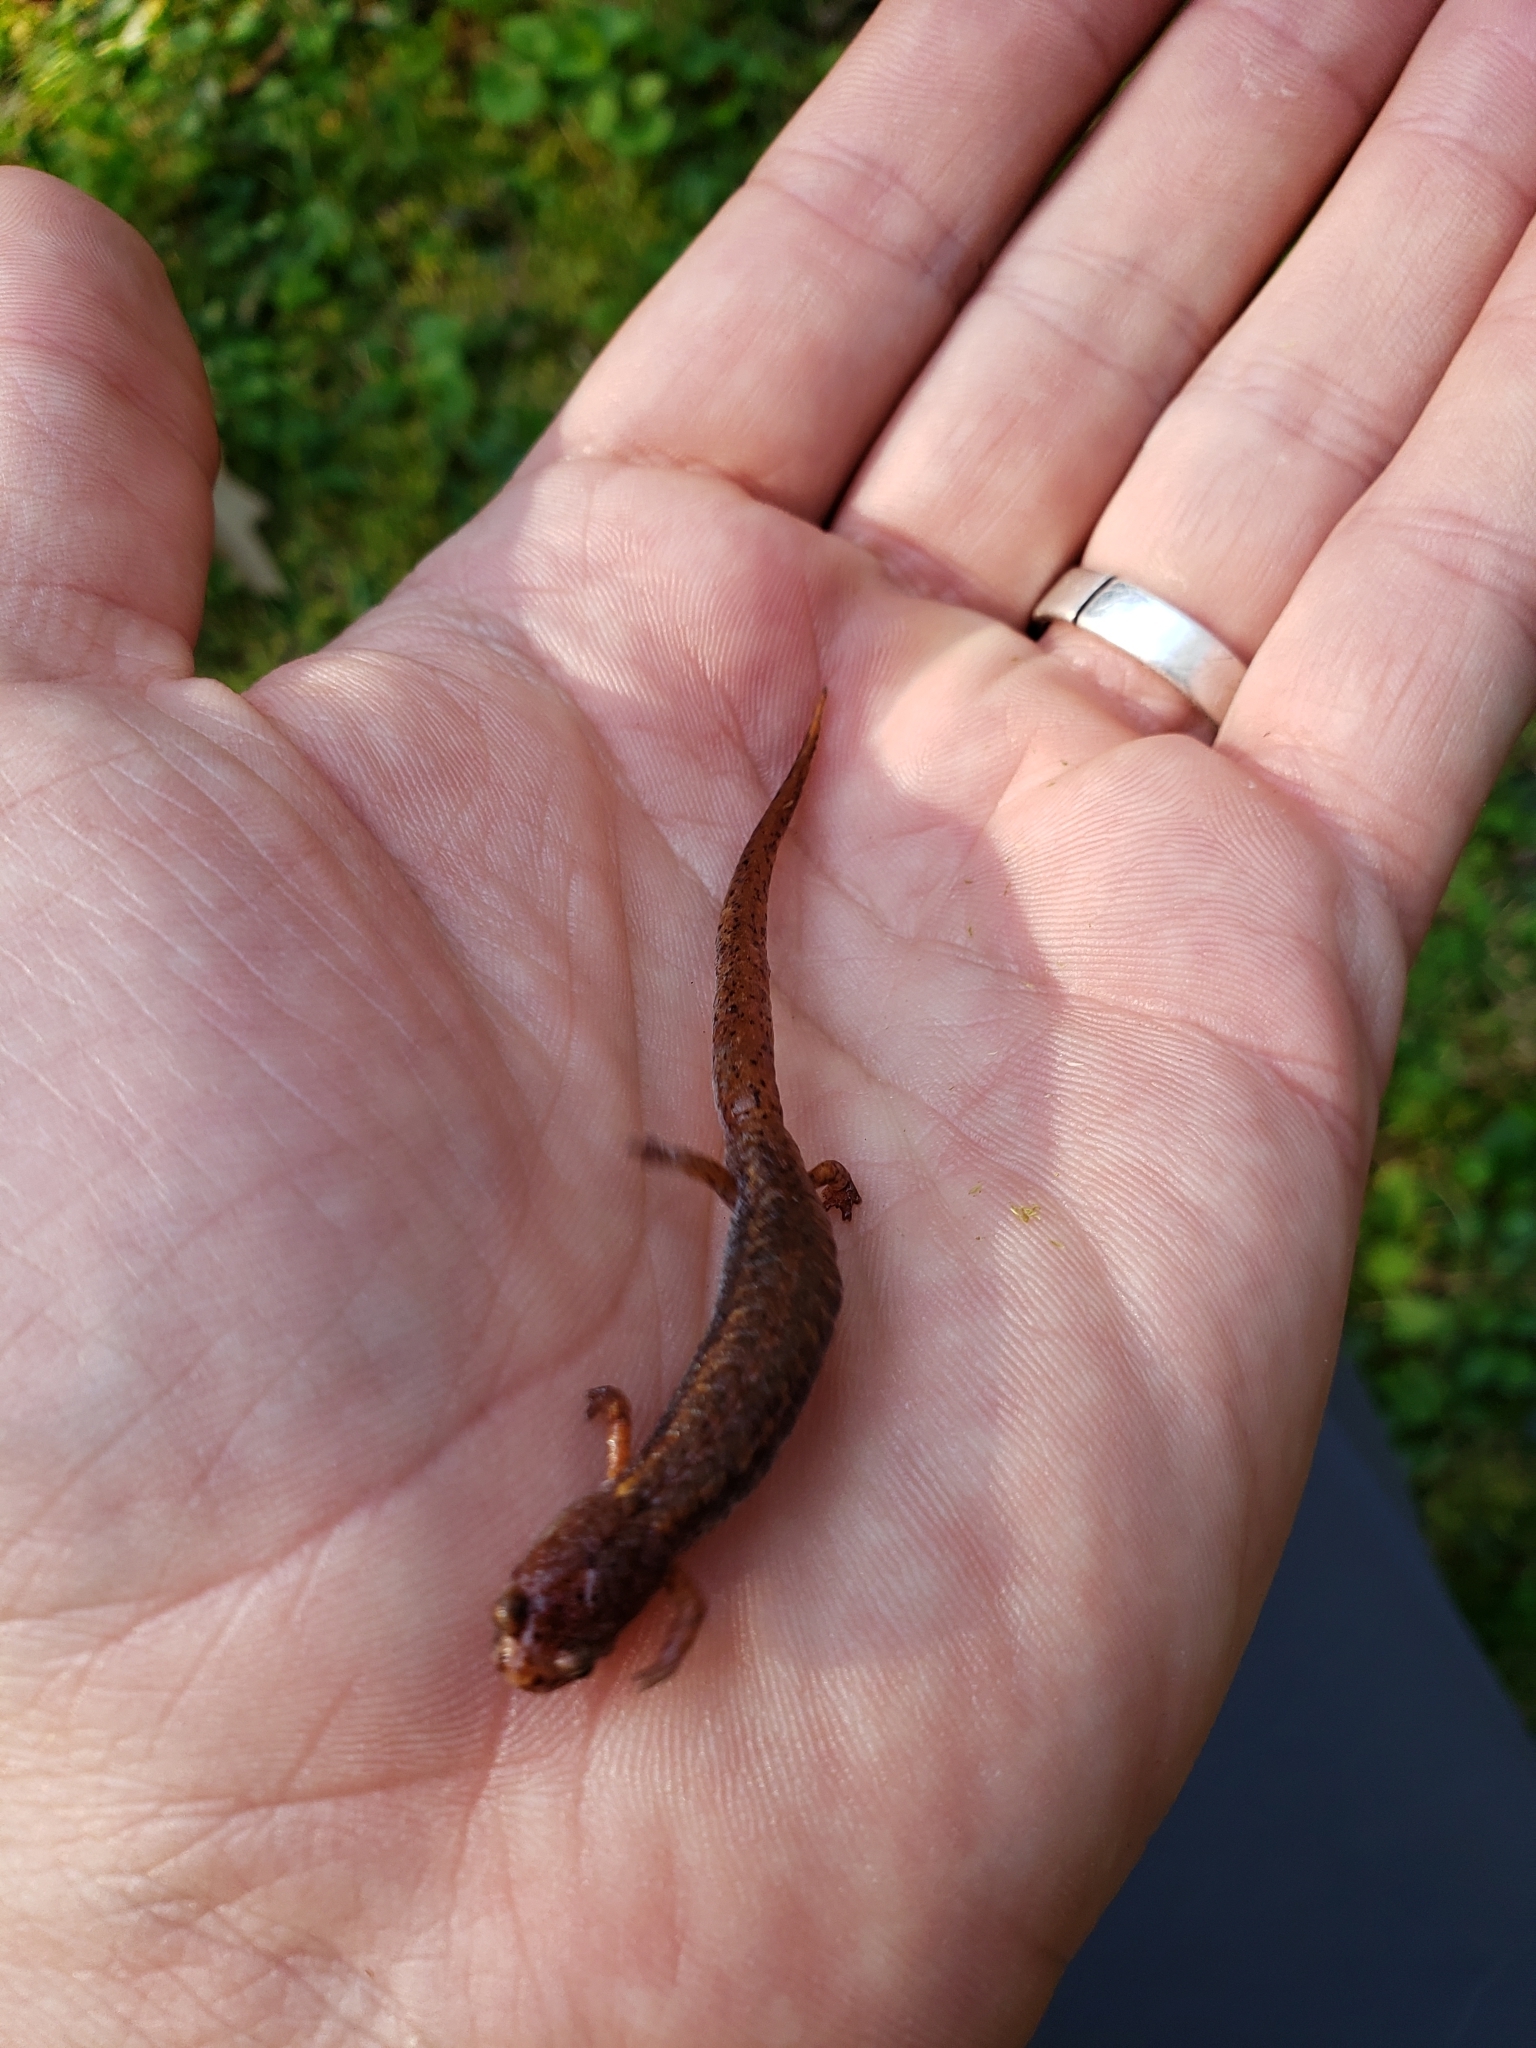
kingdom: Animalia
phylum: Chordata
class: Amphibia
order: Caudata
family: Plethodontidae
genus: Hemidactylium
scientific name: Hemidactylium scutatum
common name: Four-toed salamander
